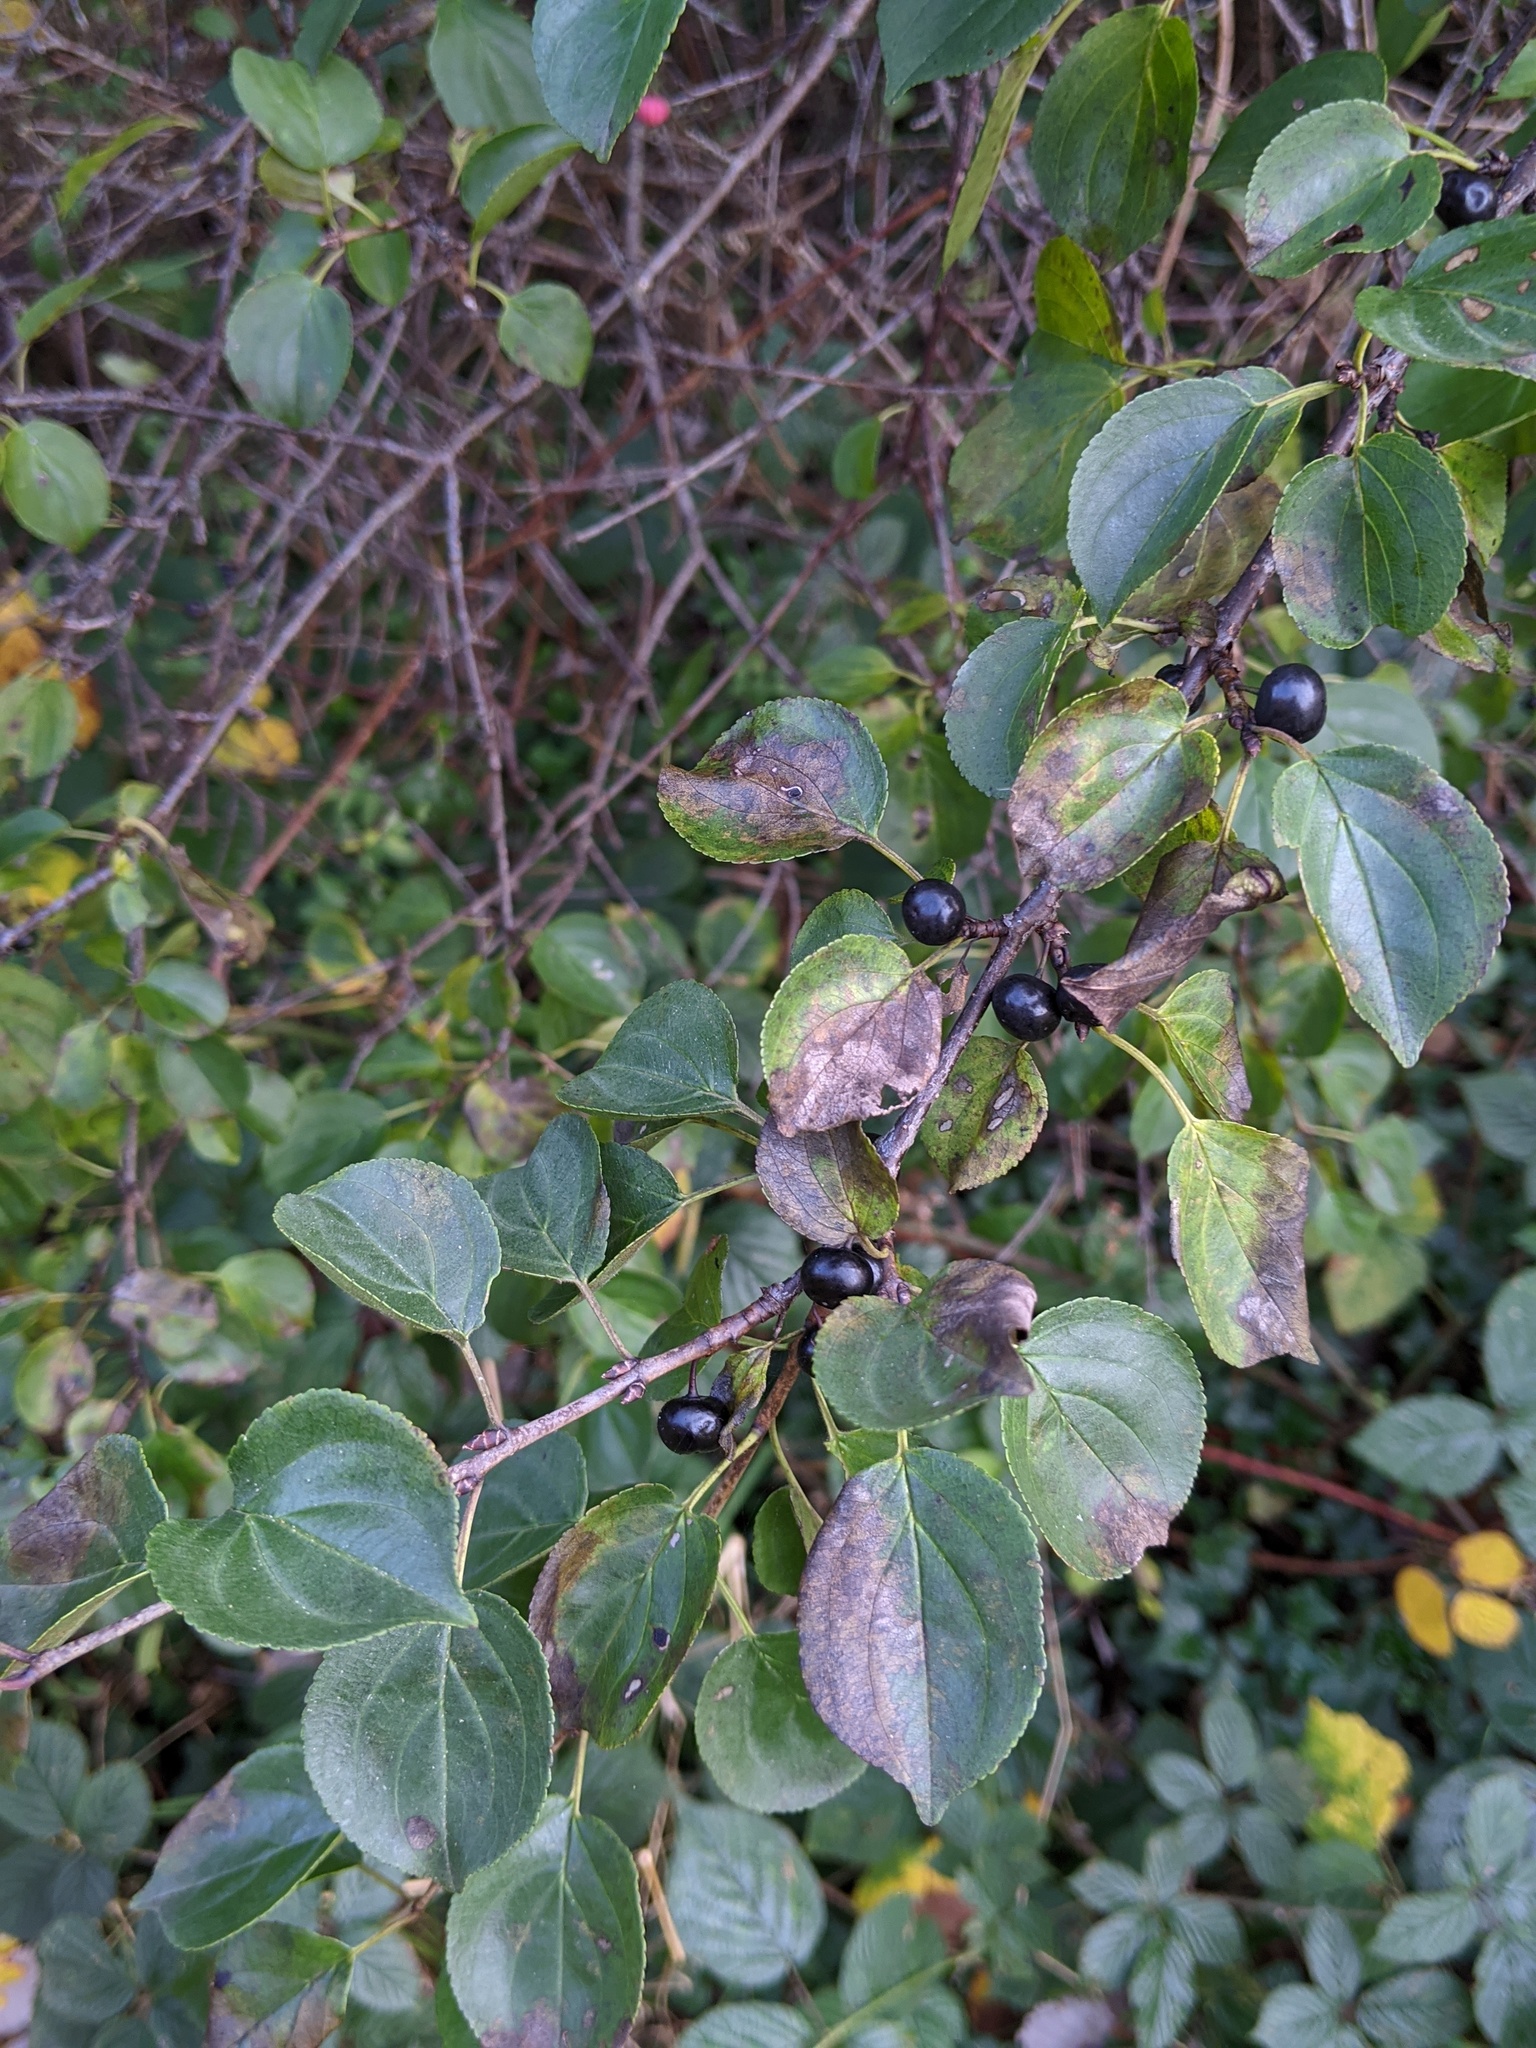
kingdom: Plantae
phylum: Tracheophyta
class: Magnoliopsida
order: Rosales
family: Rhamnaceae
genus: Rhamnus
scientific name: Rhamnus cathartica
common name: Common buckthorn
